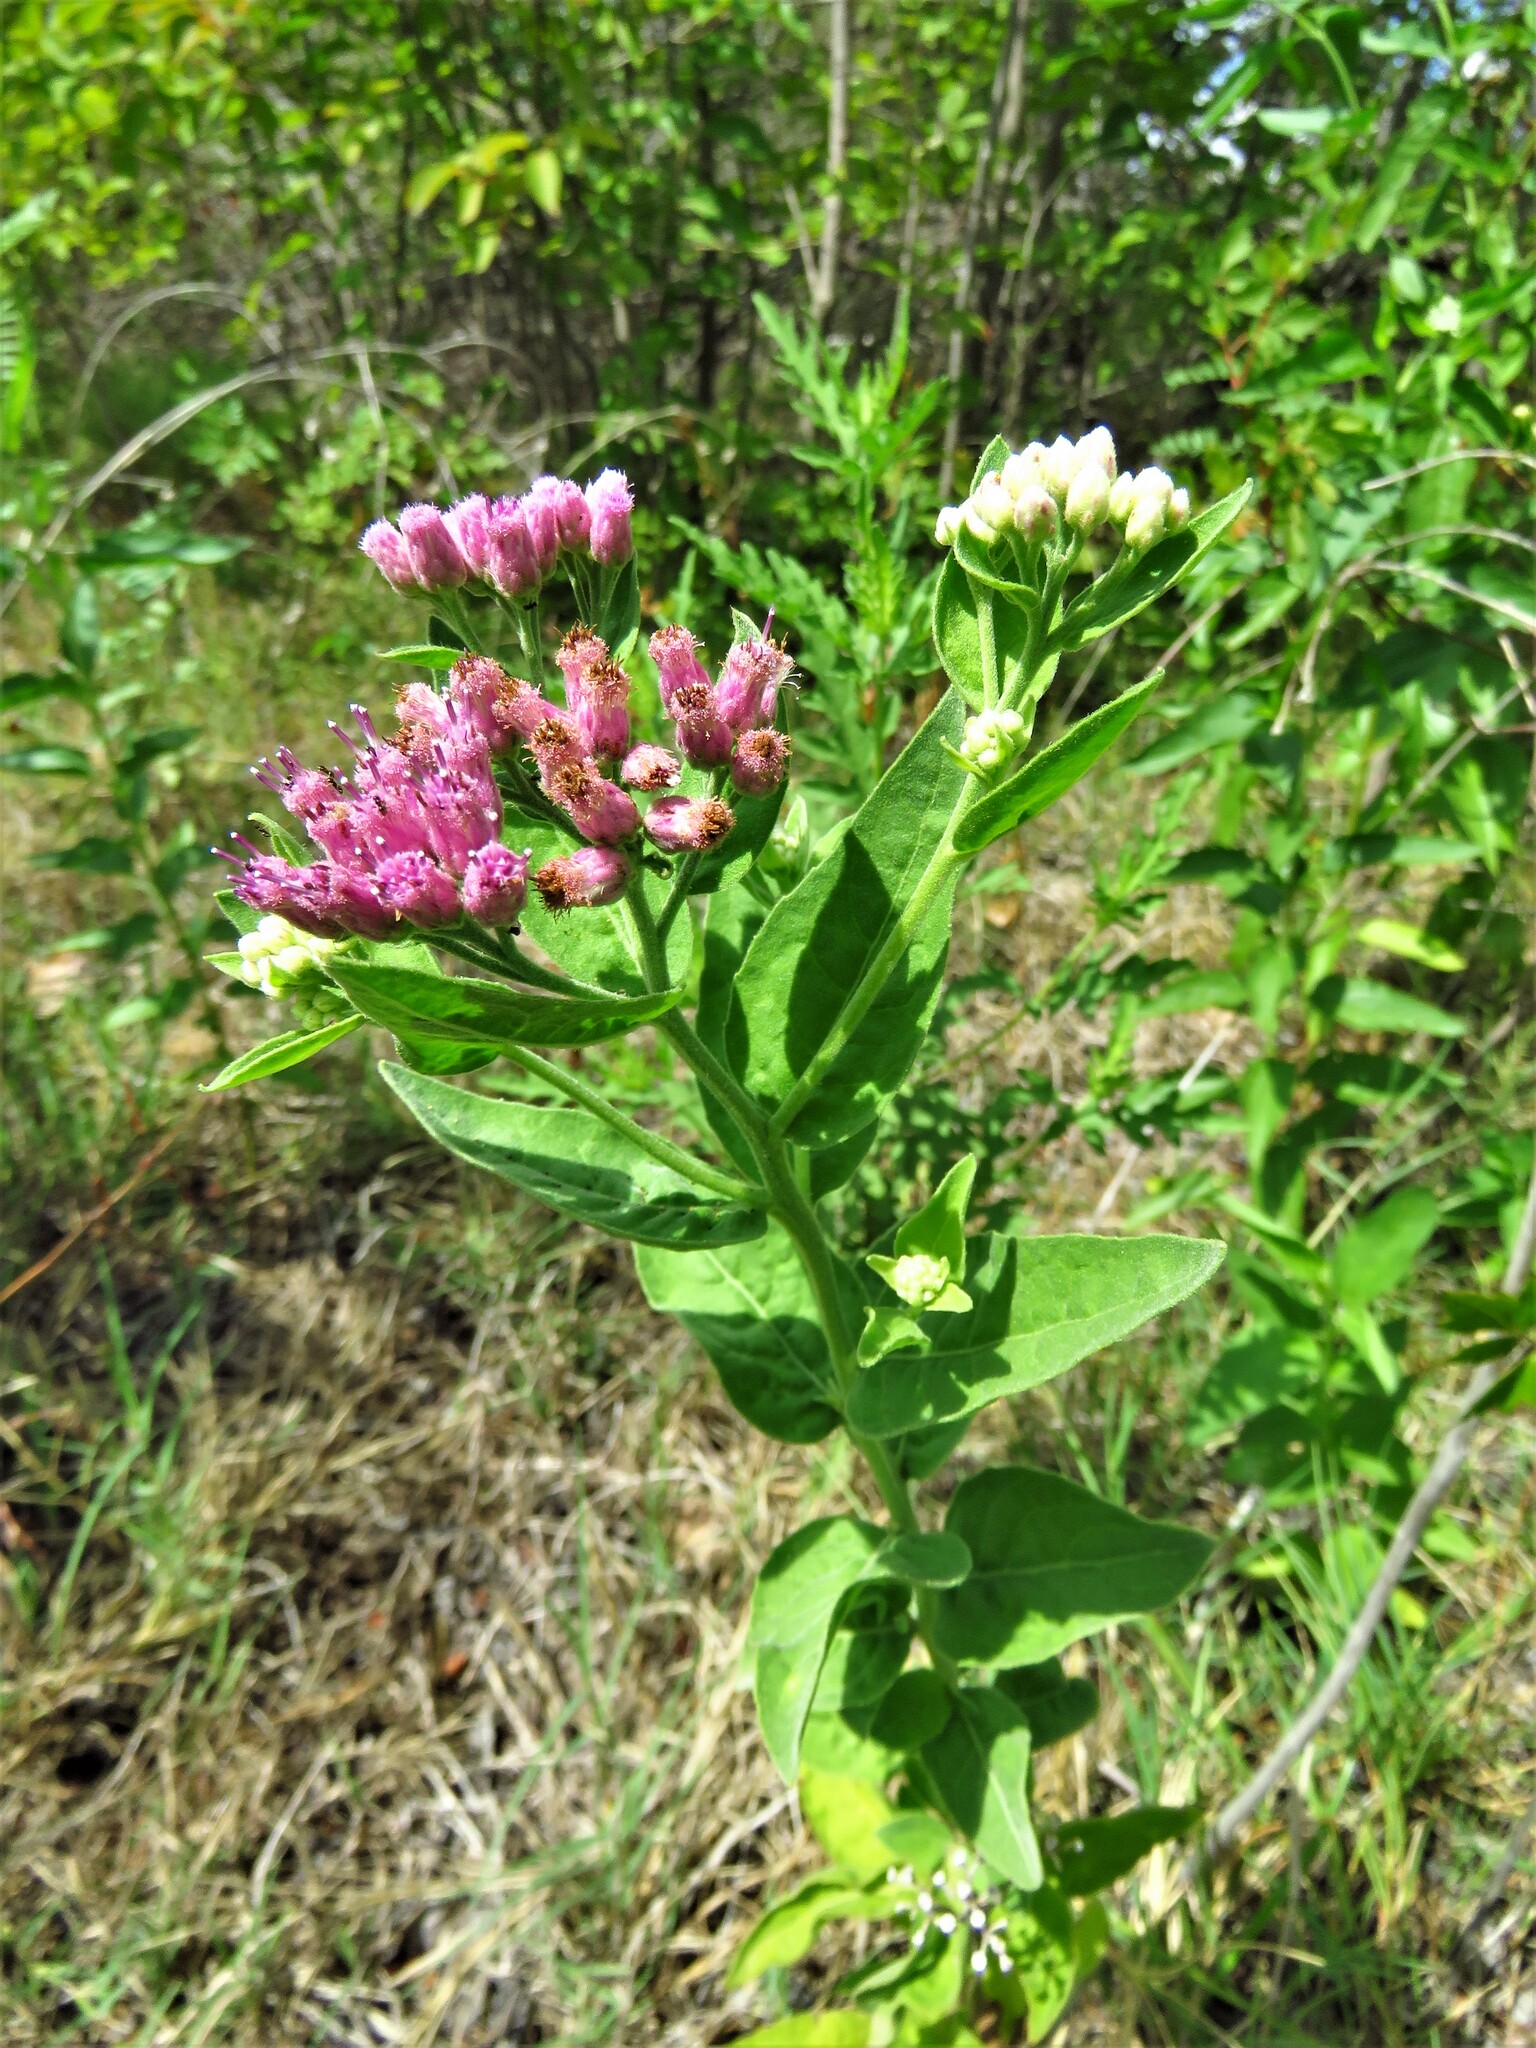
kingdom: Plantae
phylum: Tracheophyta
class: Magnoliopsida
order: Asterales
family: Asteraceae
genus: Pluchea
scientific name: Pluchea odorata
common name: Saltmarsh fleabane
